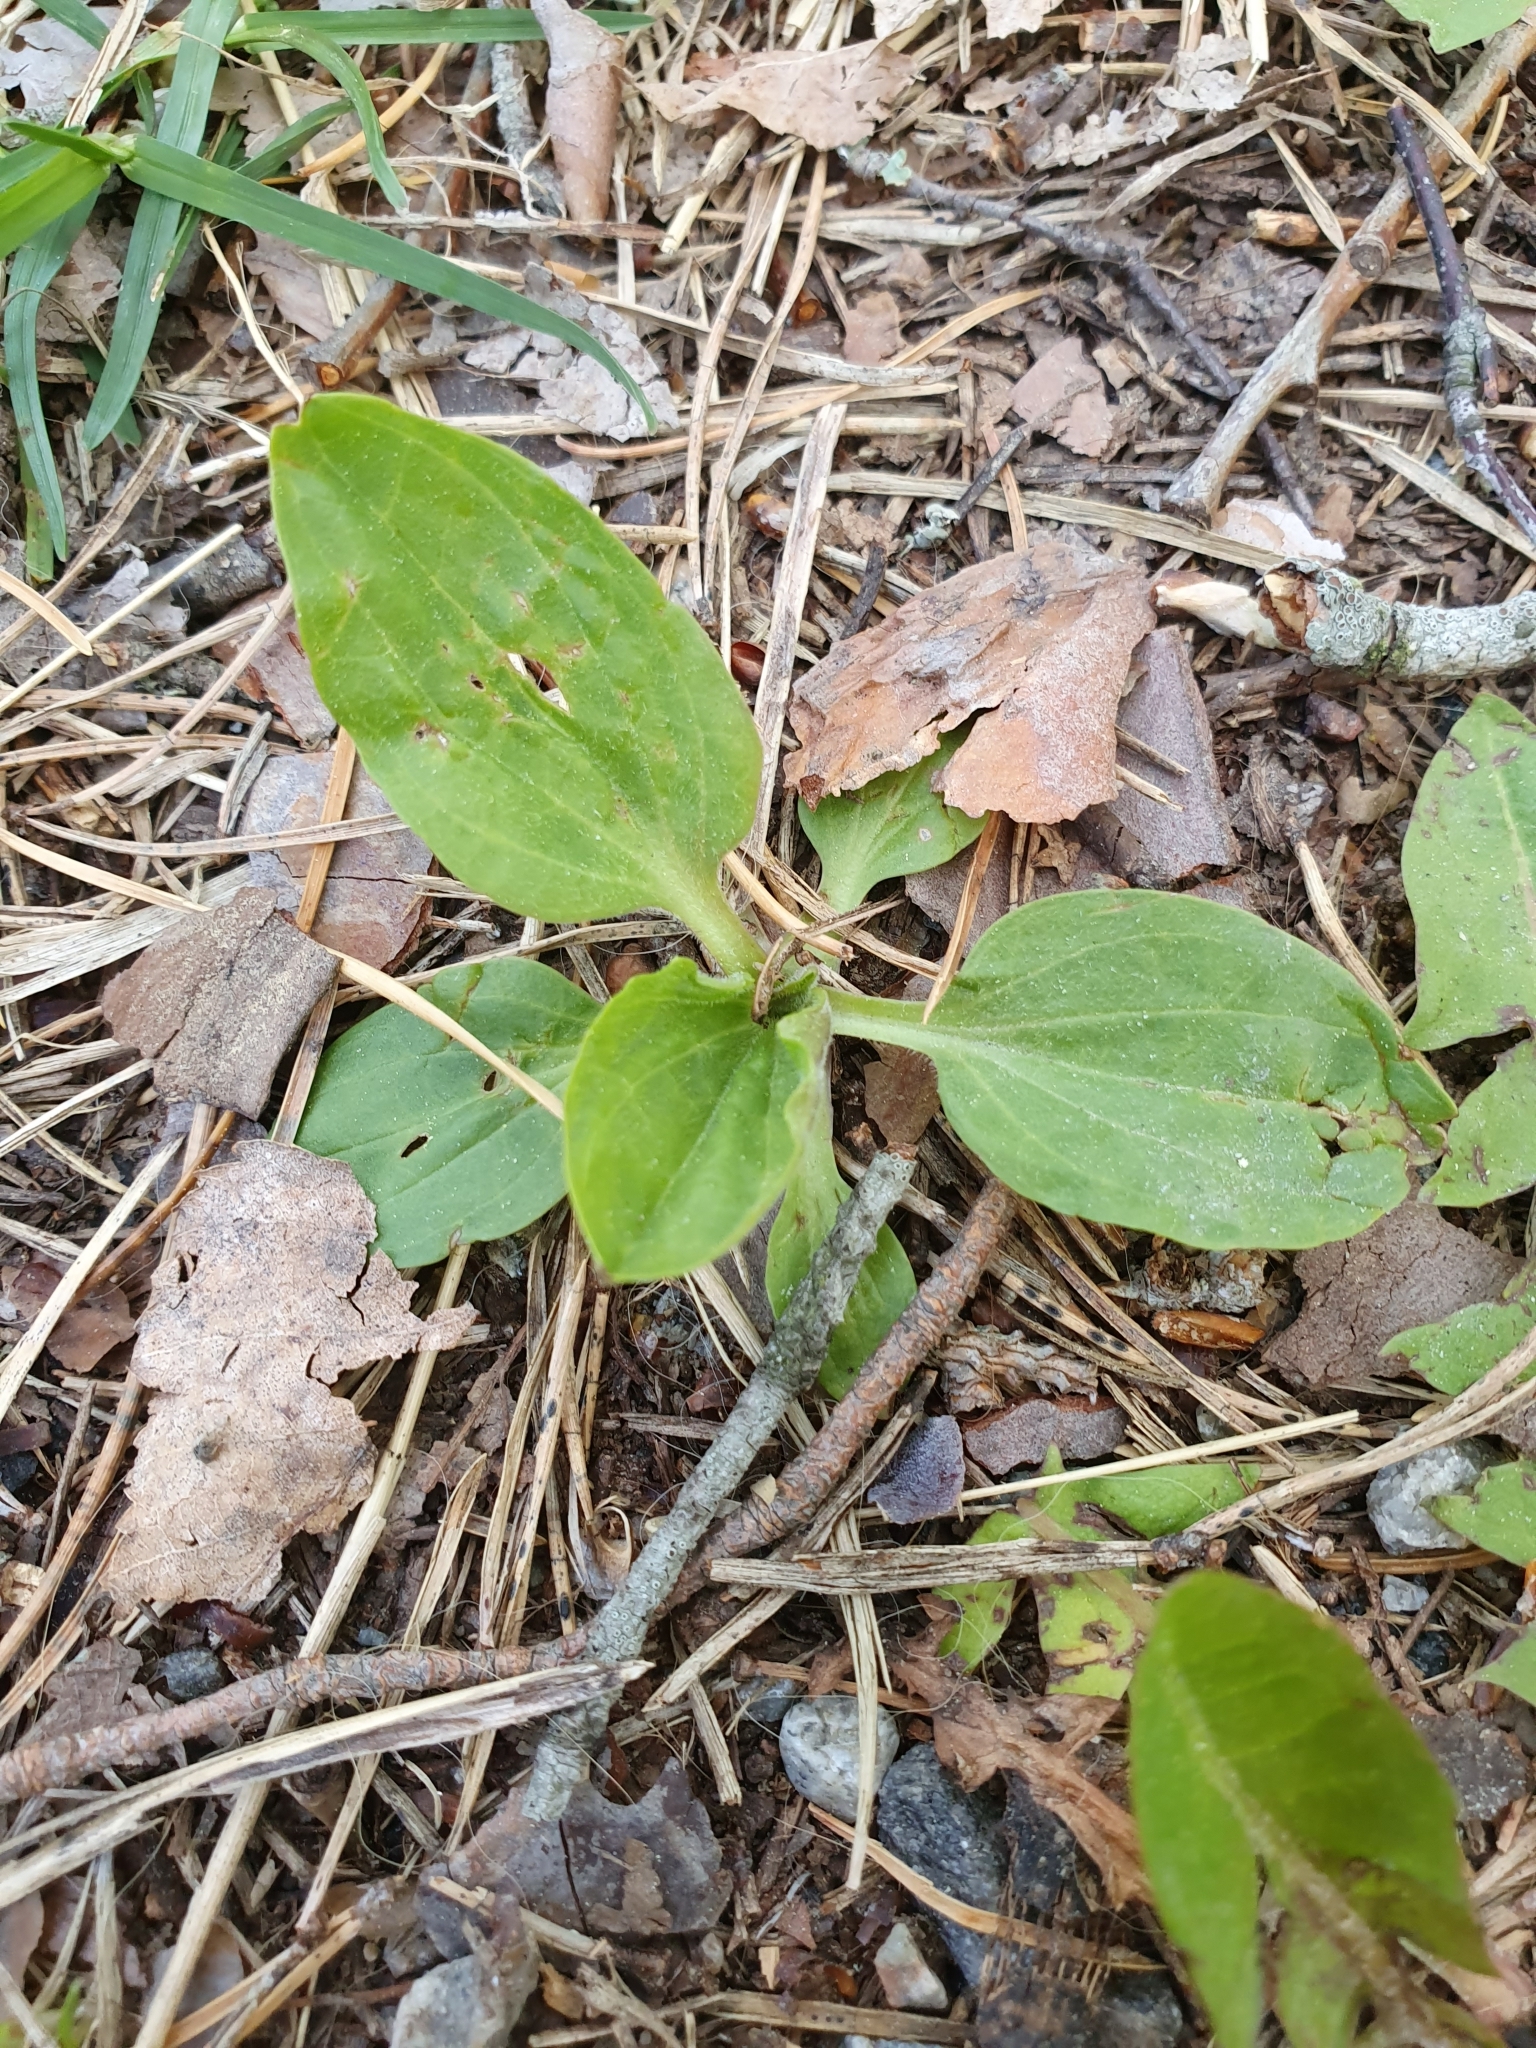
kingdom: Plantae
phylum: Tracheophyta
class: Magnoliopsida
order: Lamiales
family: Plantaginaceae
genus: Plantago
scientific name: Plantago major
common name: Common plantain
